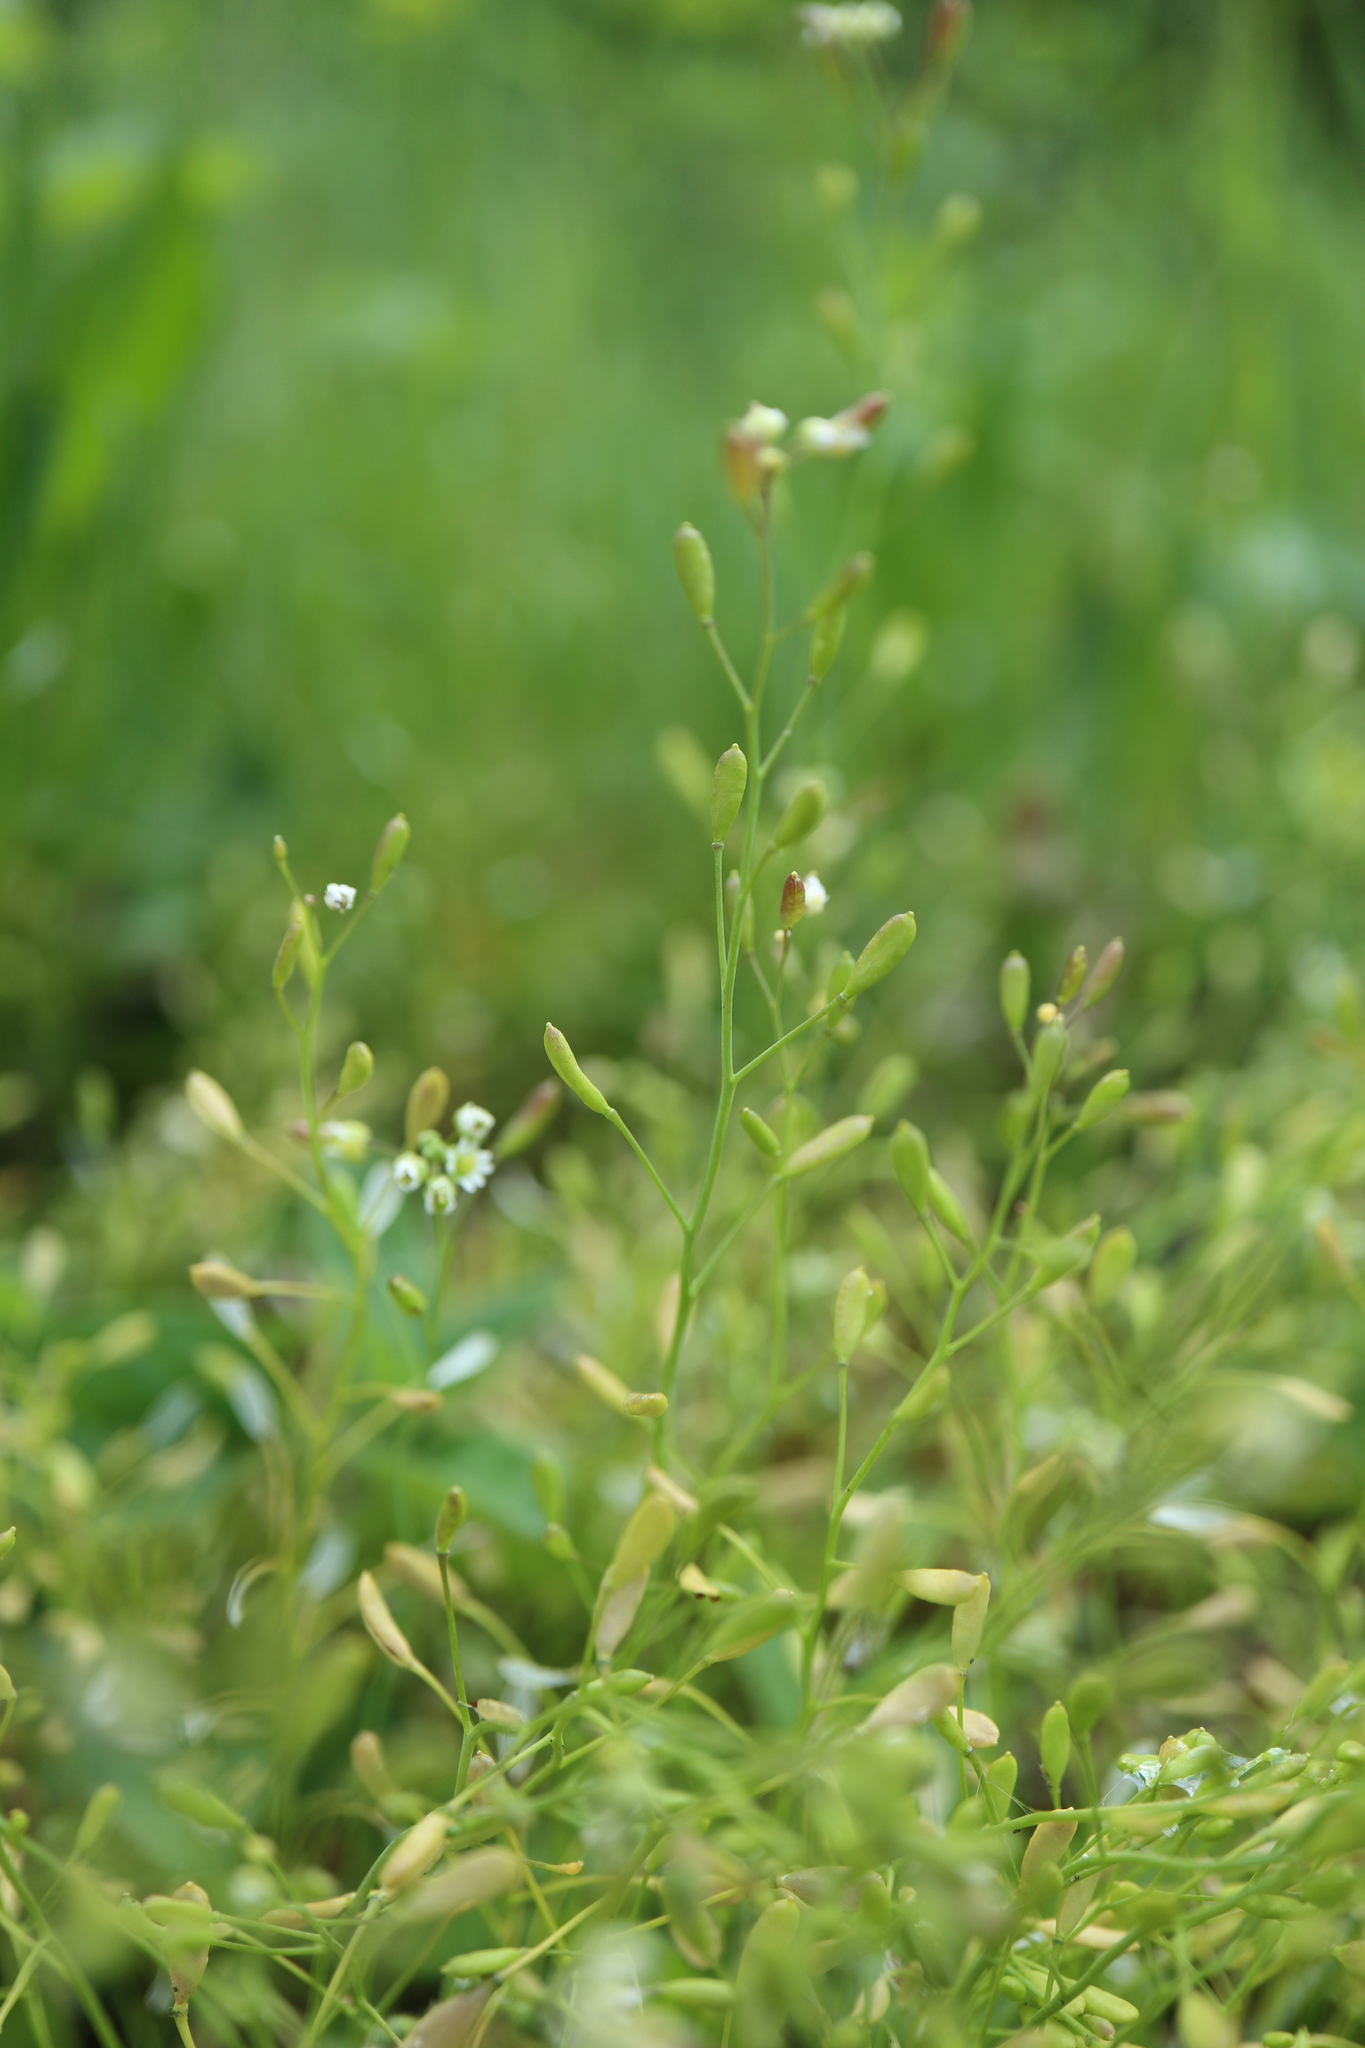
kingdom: Plantae
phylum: Tracheophyta
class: Magnoliopsida
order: Brassicales
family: Brassicaceae
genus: Draba
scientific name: Draba verna
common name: Spring draba
